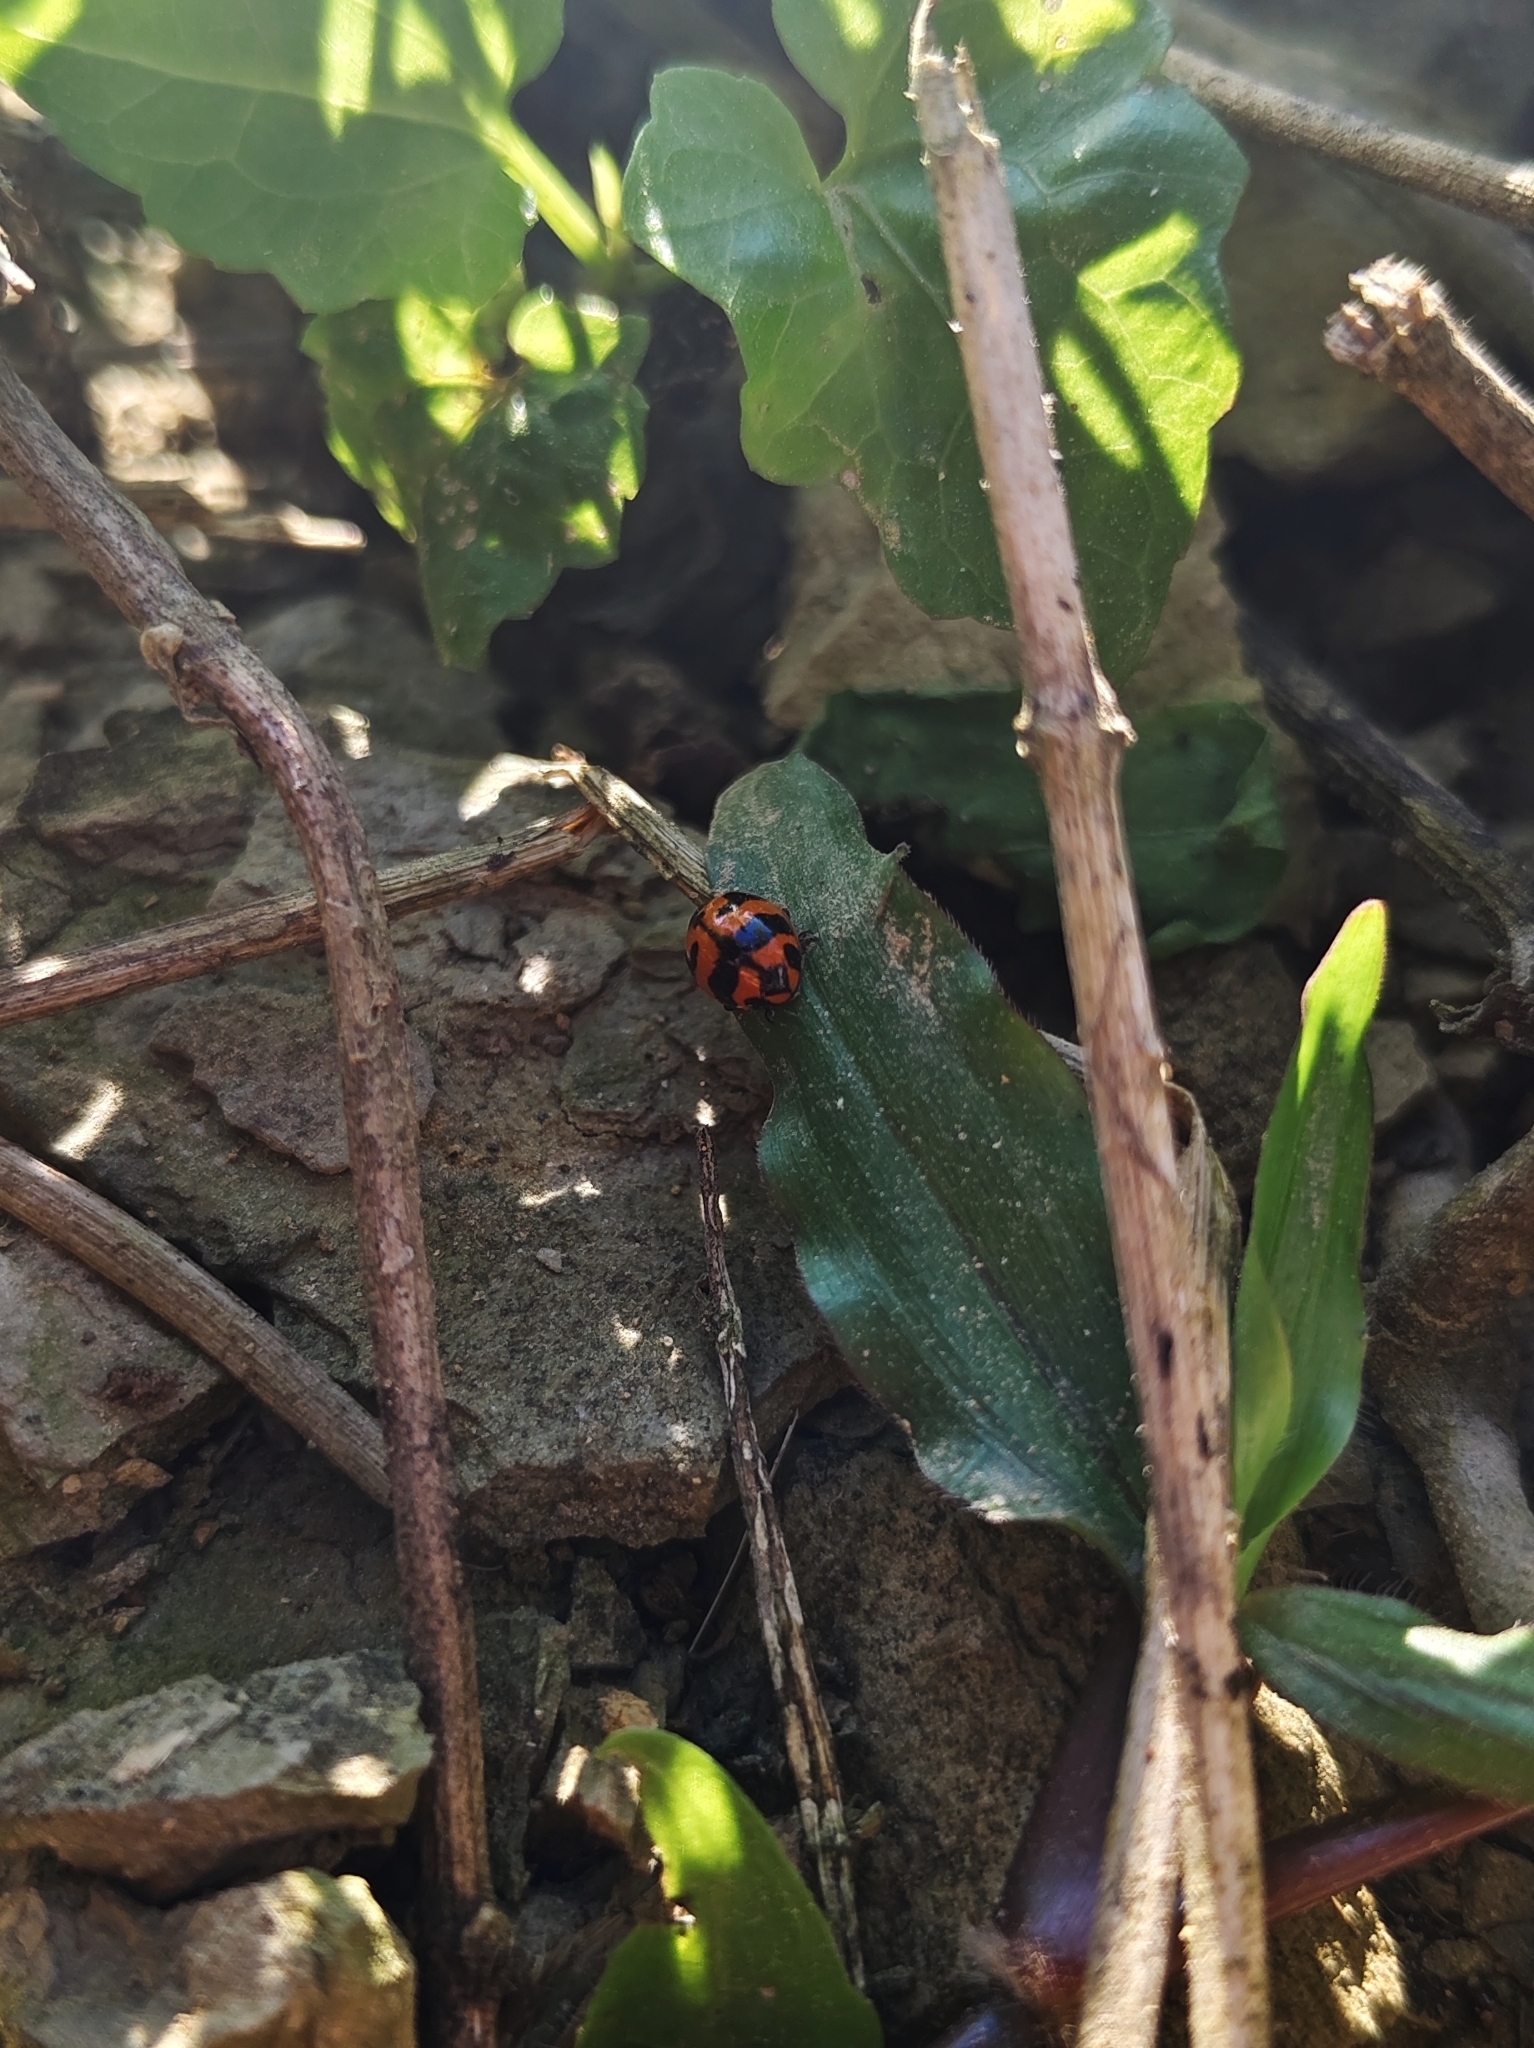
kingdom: Animalia
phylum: Arthropoda
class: Insecta
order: Coleoptera
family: Coccinellidae
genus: Coccinella
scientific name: Coccinella transversalis
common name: Transverse lady beetle
